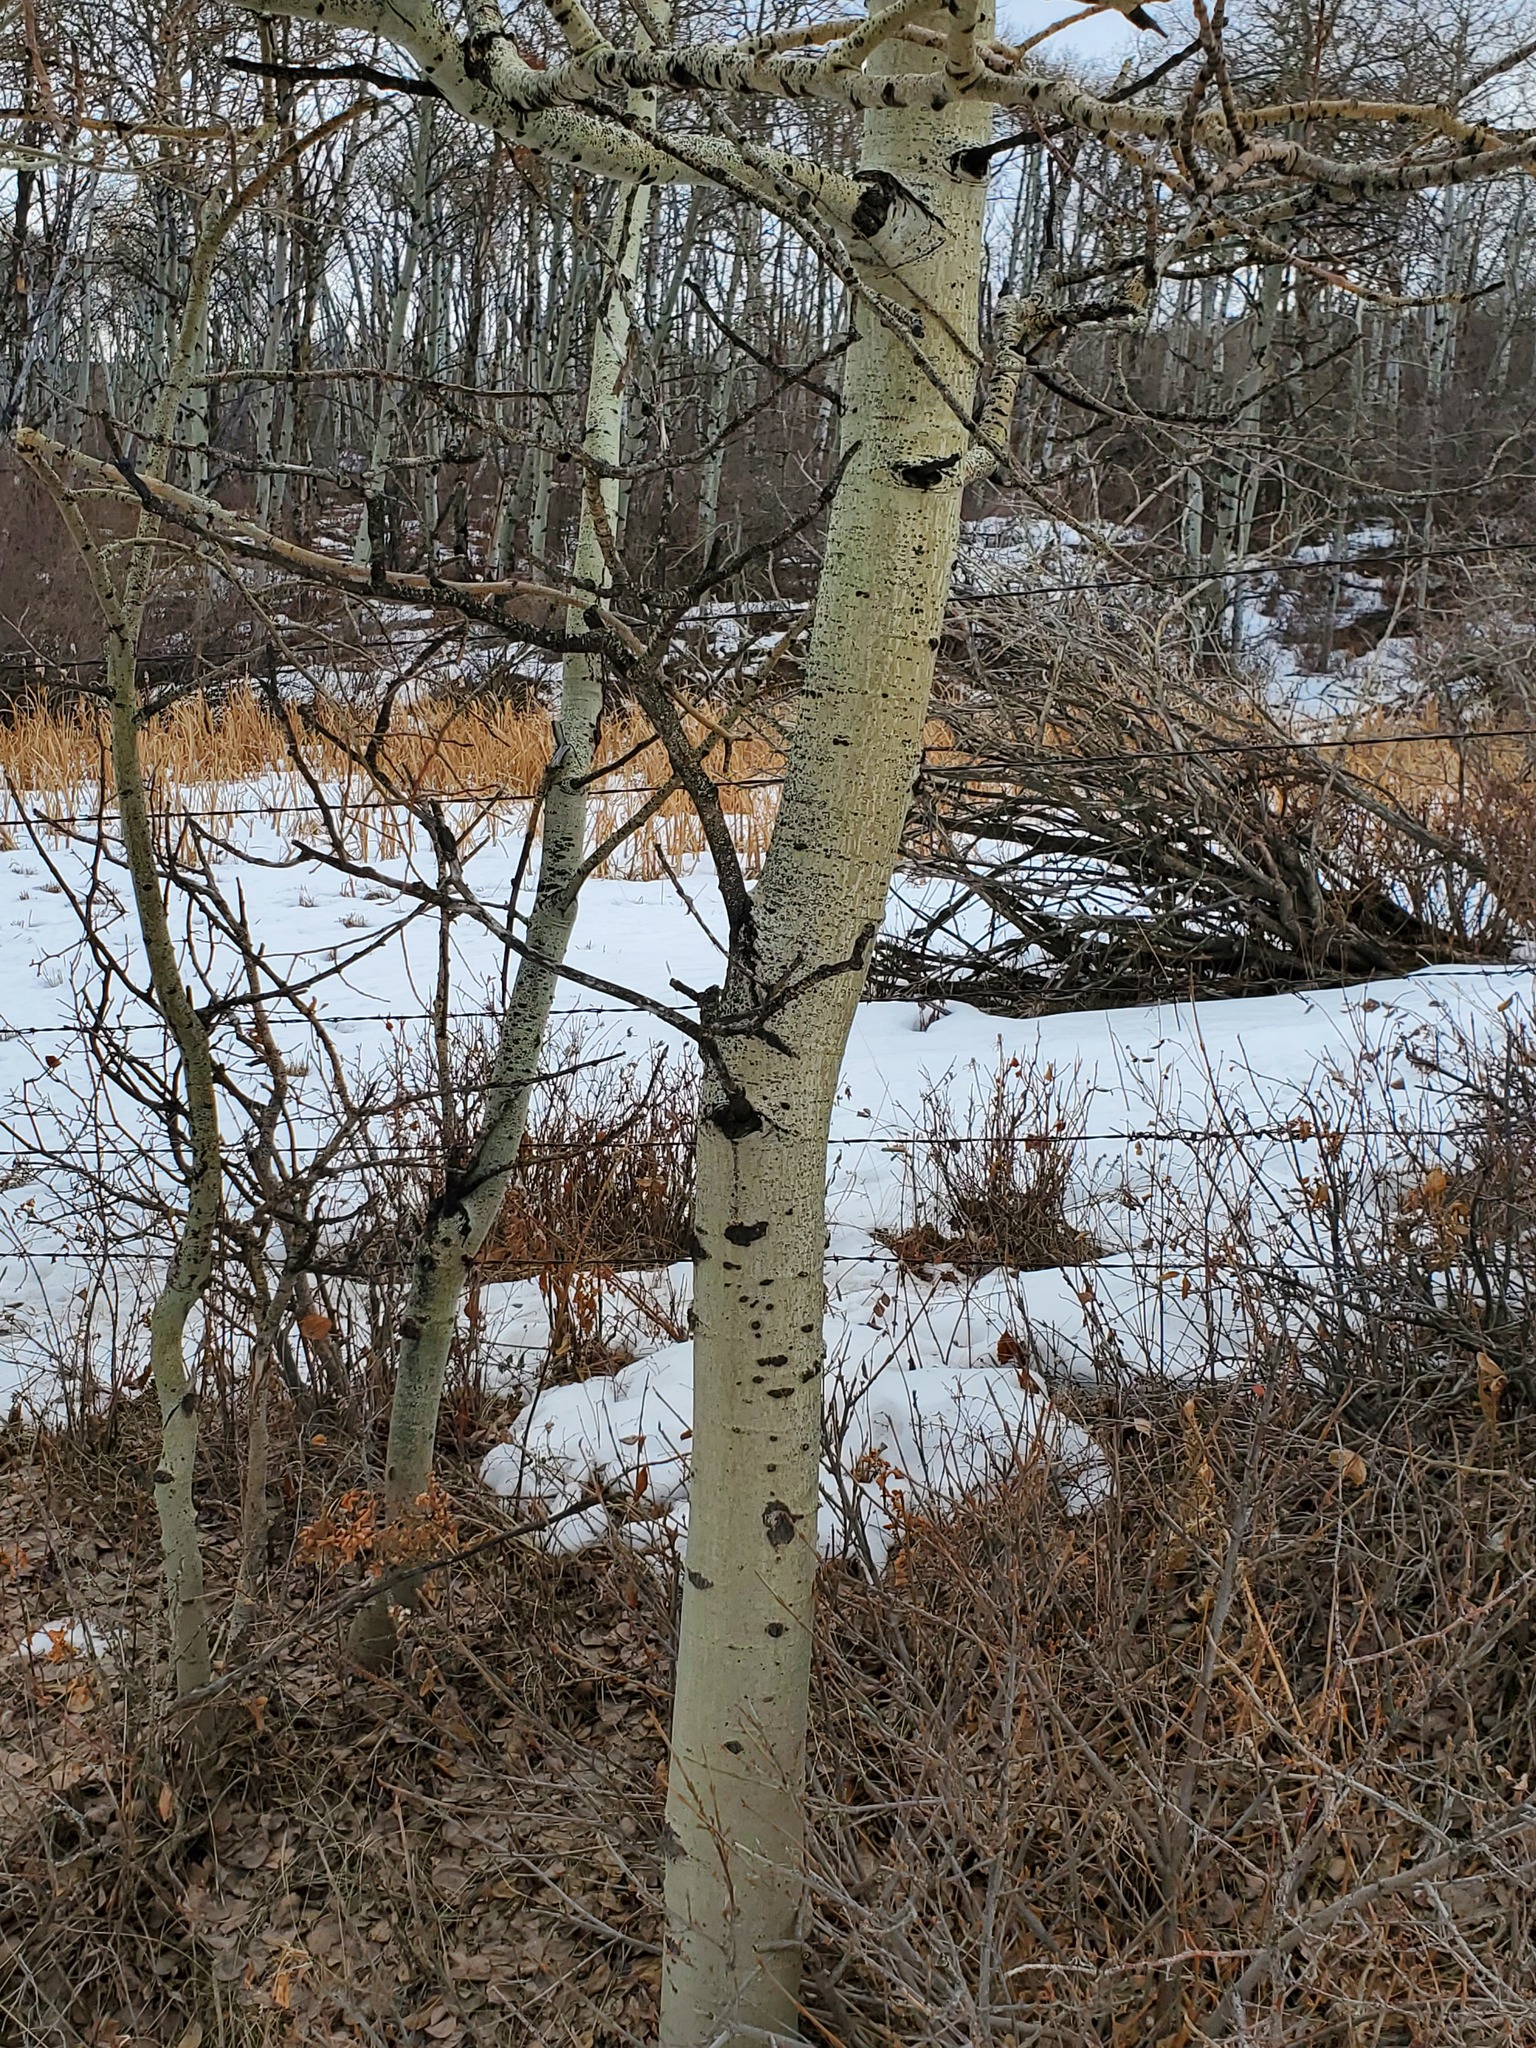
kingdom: Plantae
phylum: Tracheophyta
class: Magnoliopsida
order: Malpighiales
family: Salicaceae
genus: Populus
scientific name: Populus tremuloides
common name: Quaking aspen
